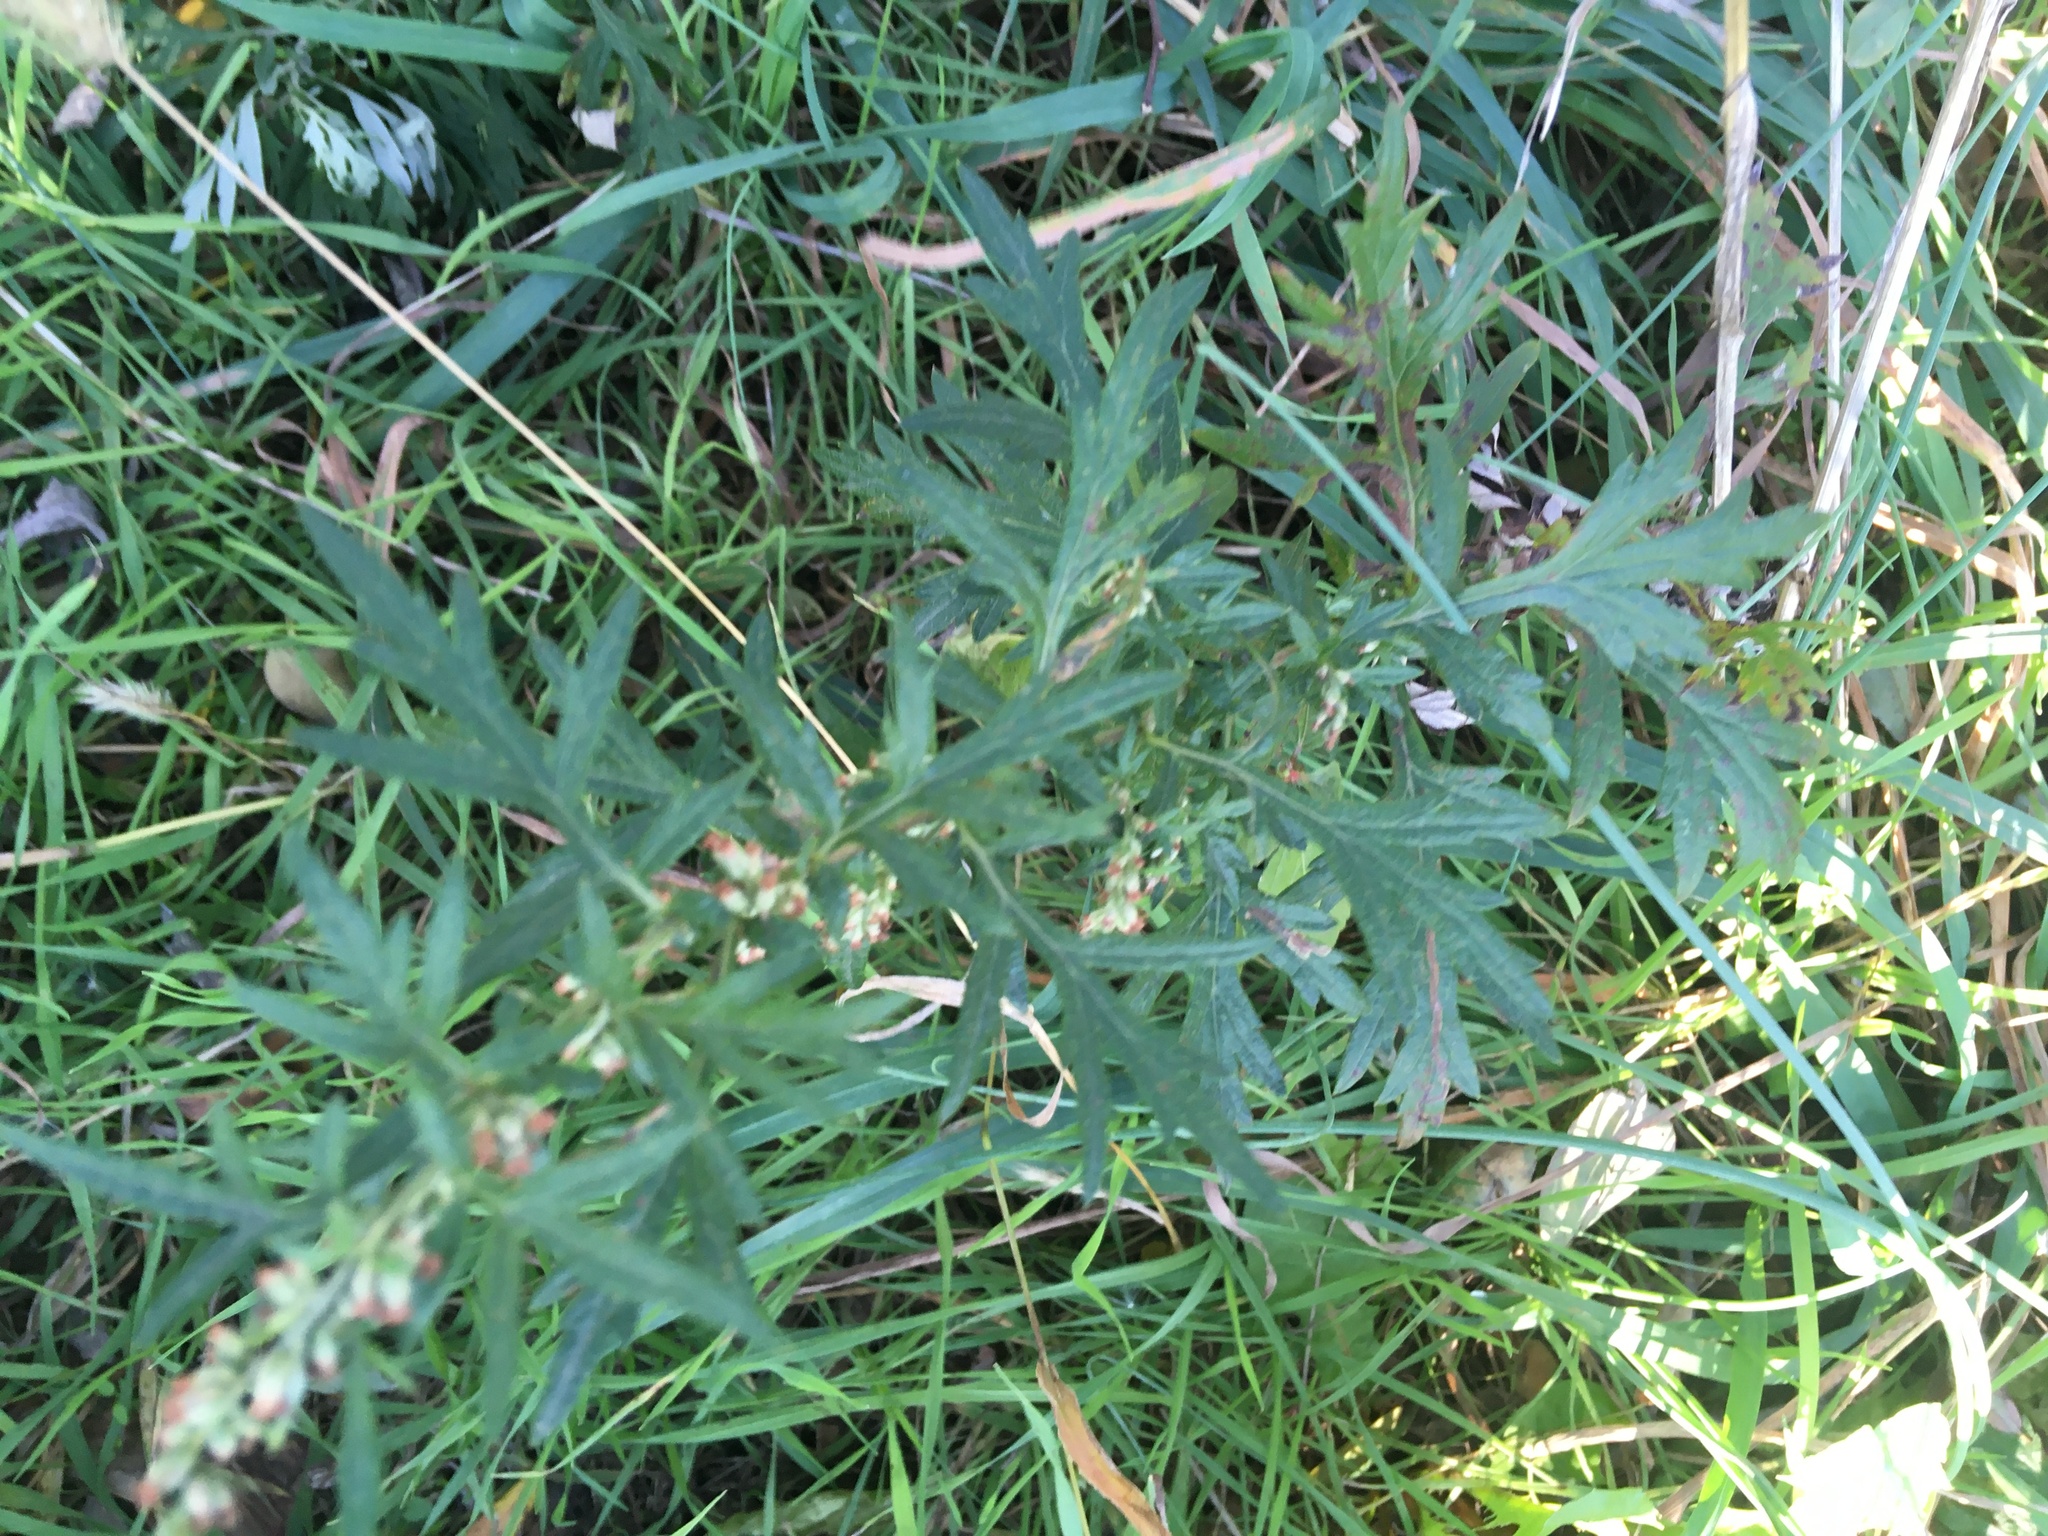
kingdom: Plantae
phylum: Tracheophyta
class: Magnoliopsida
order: Asterales
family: Asteraceae
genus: Artemisia
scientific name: Artemisia vulgaris
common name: Mugwort
